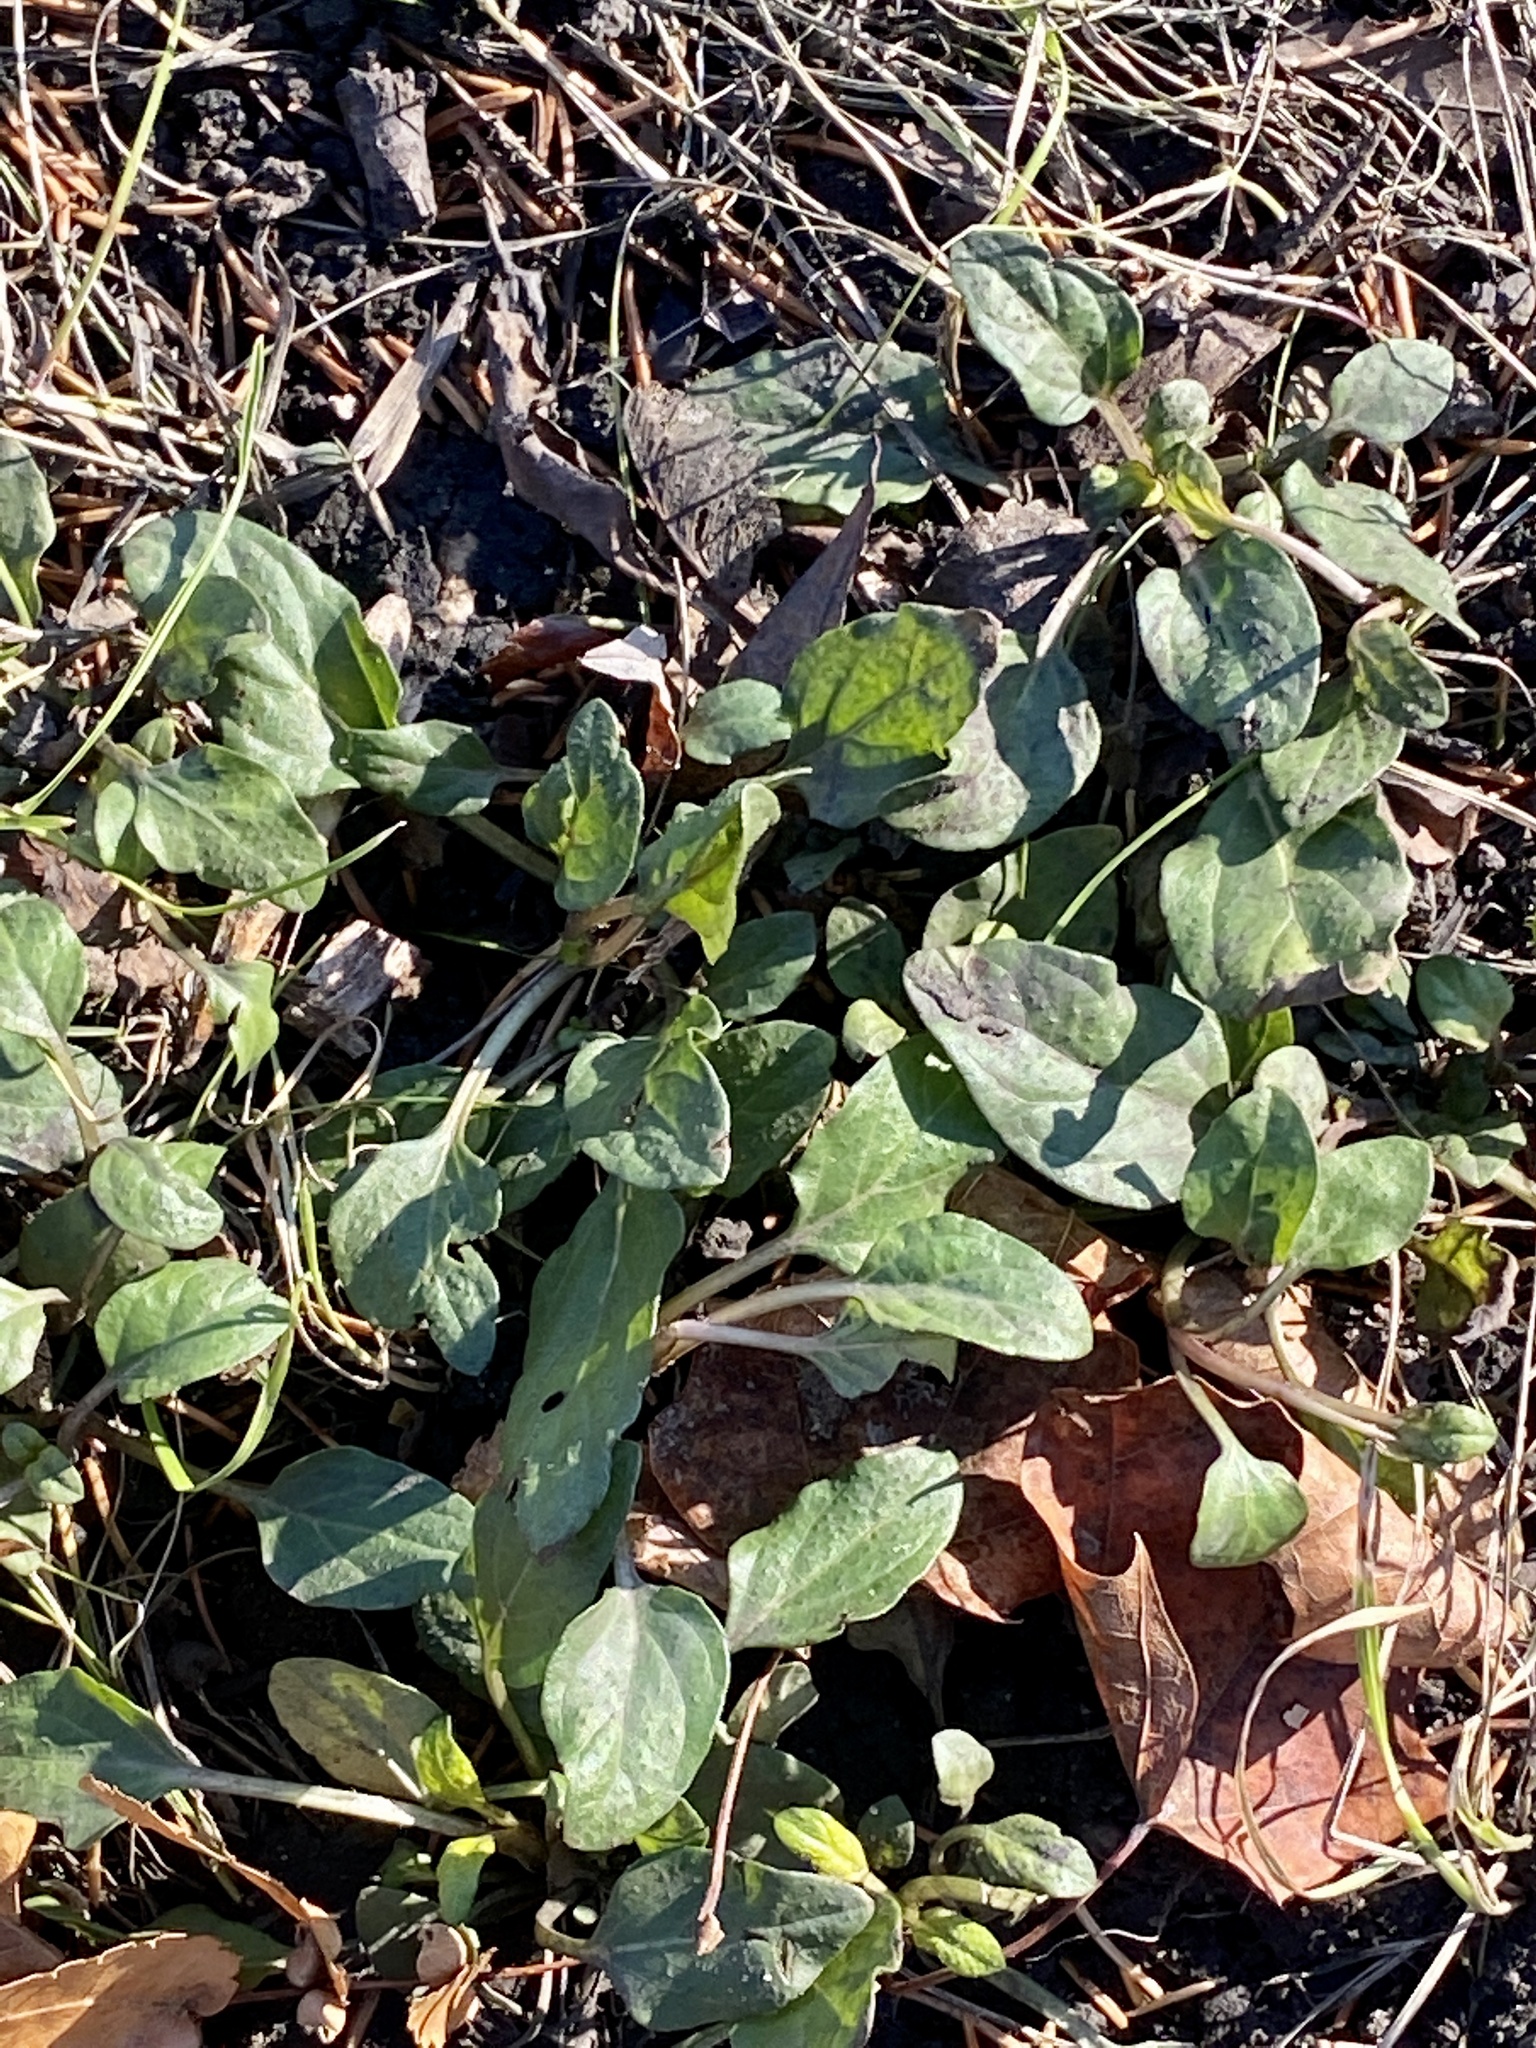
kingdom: Plantae
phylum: Tracheophyta
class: Magnoliopsida
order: Lamiales
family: Lamiaceae
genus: Prunella
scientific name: Prunella vulgaris
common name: Heal-all
